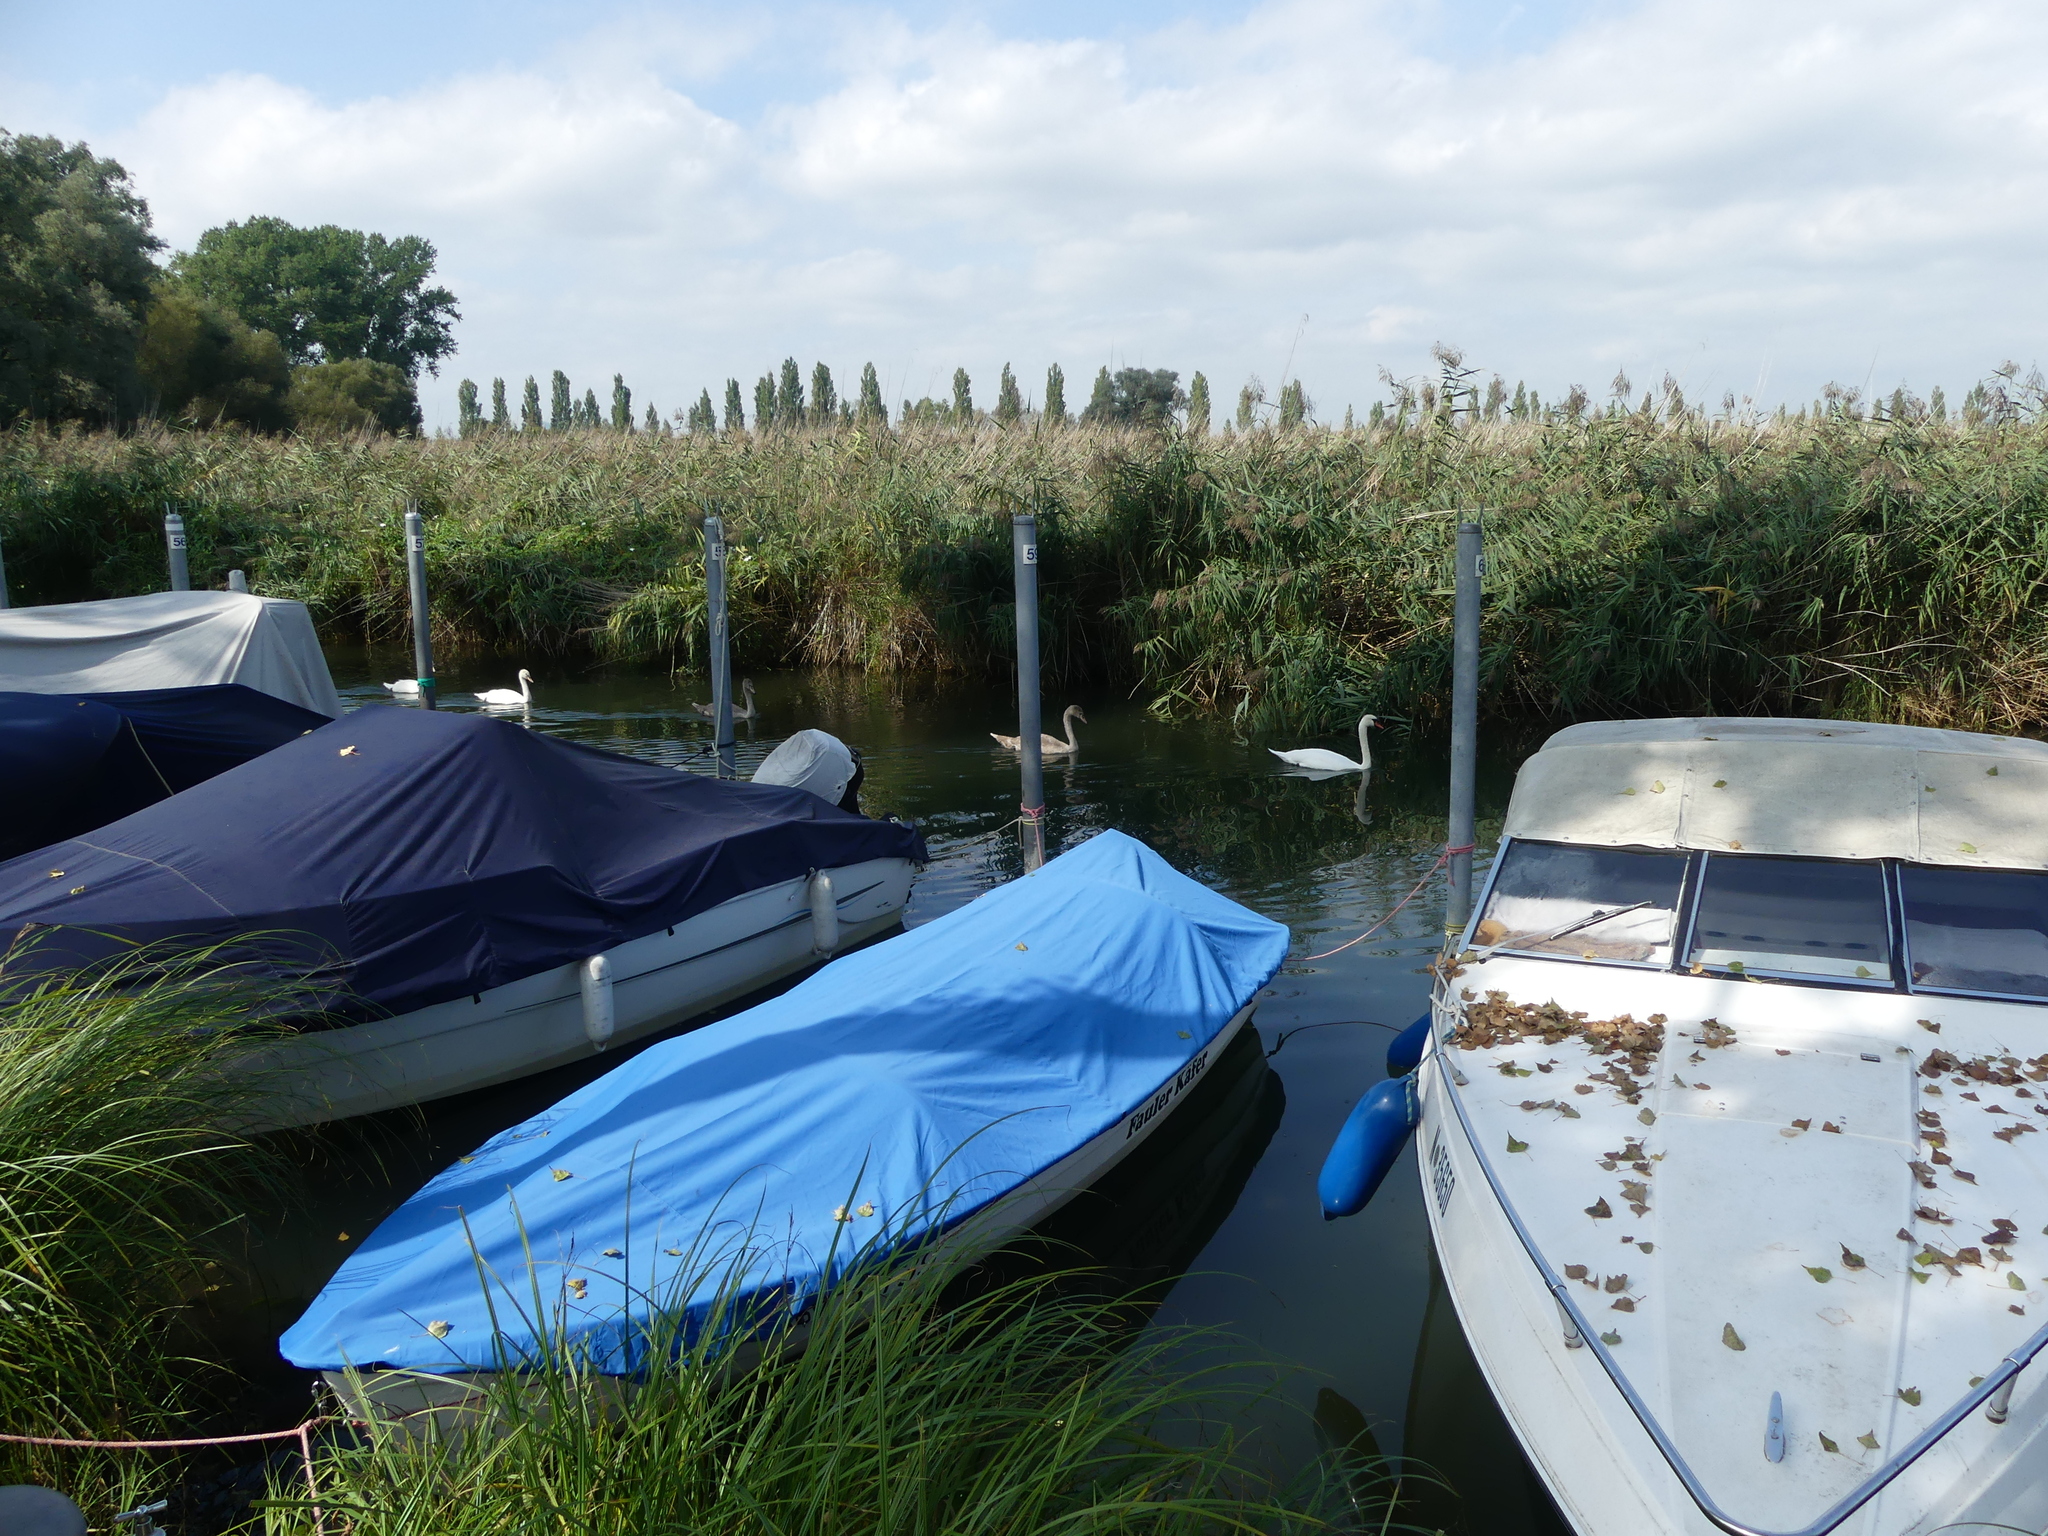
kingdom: Animalia
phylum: Chordata
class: Aves
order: Anseriformes
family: Anatidae
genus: Cygnus
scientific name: Cygnus olor
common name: Mute swan
